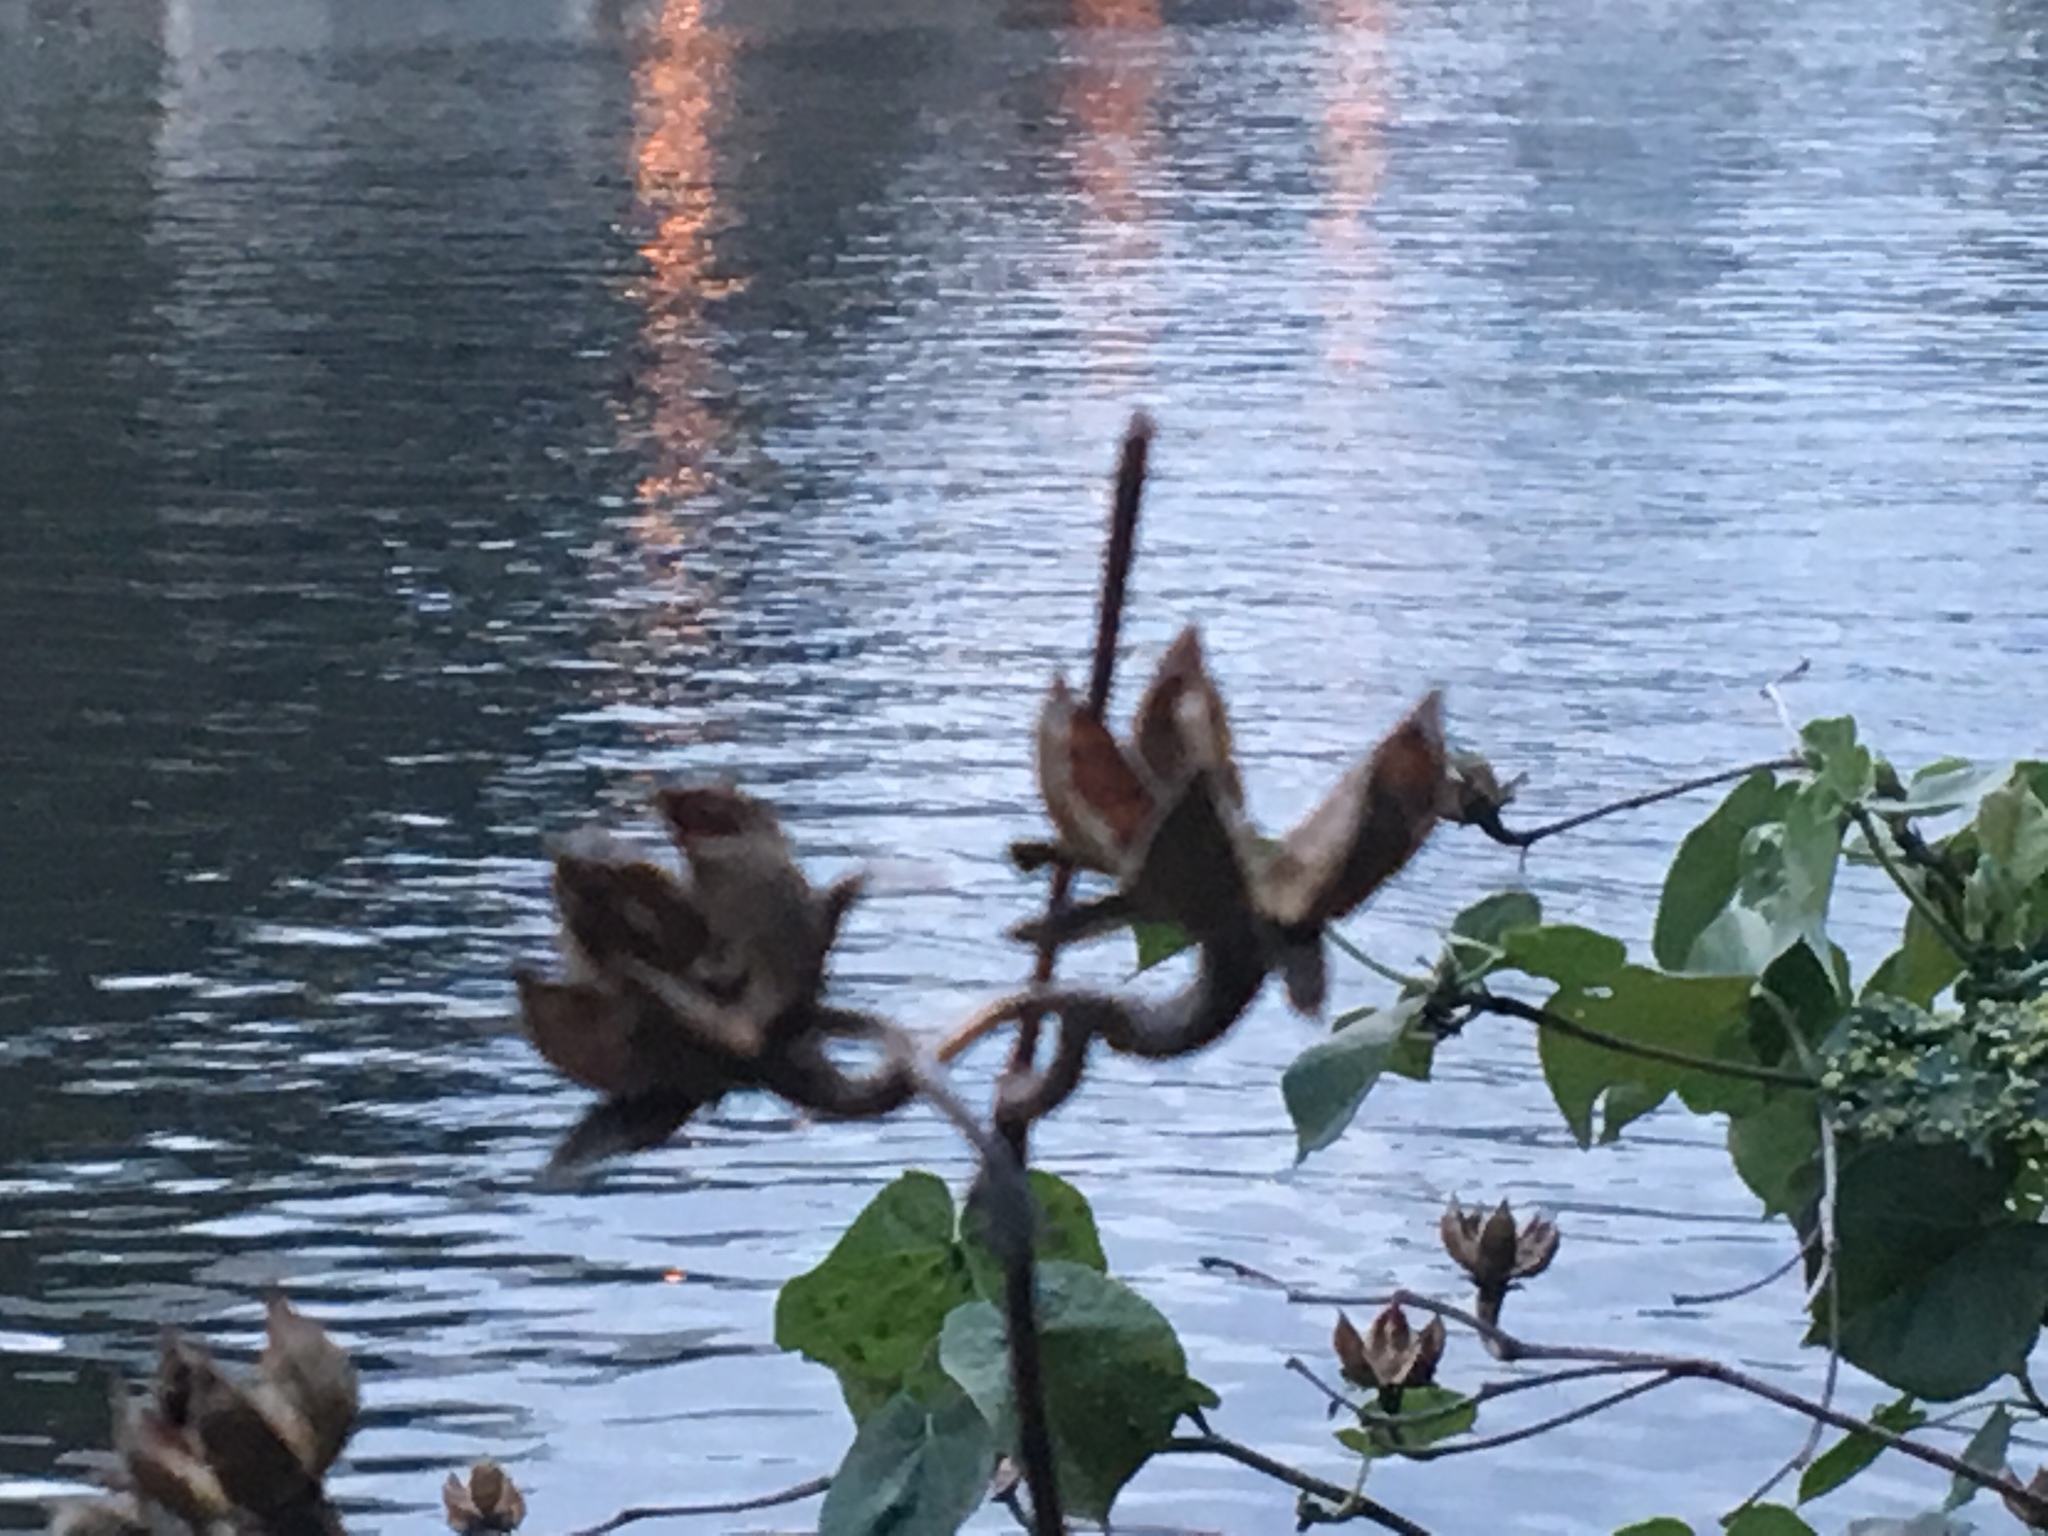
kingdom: Plantae
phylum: Tracheophyta
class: Magnoliopsida
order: Malvales
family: Malvaceae
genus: Talipariti
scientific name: Talipariti tiliaceum
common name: Sea hibiscus
